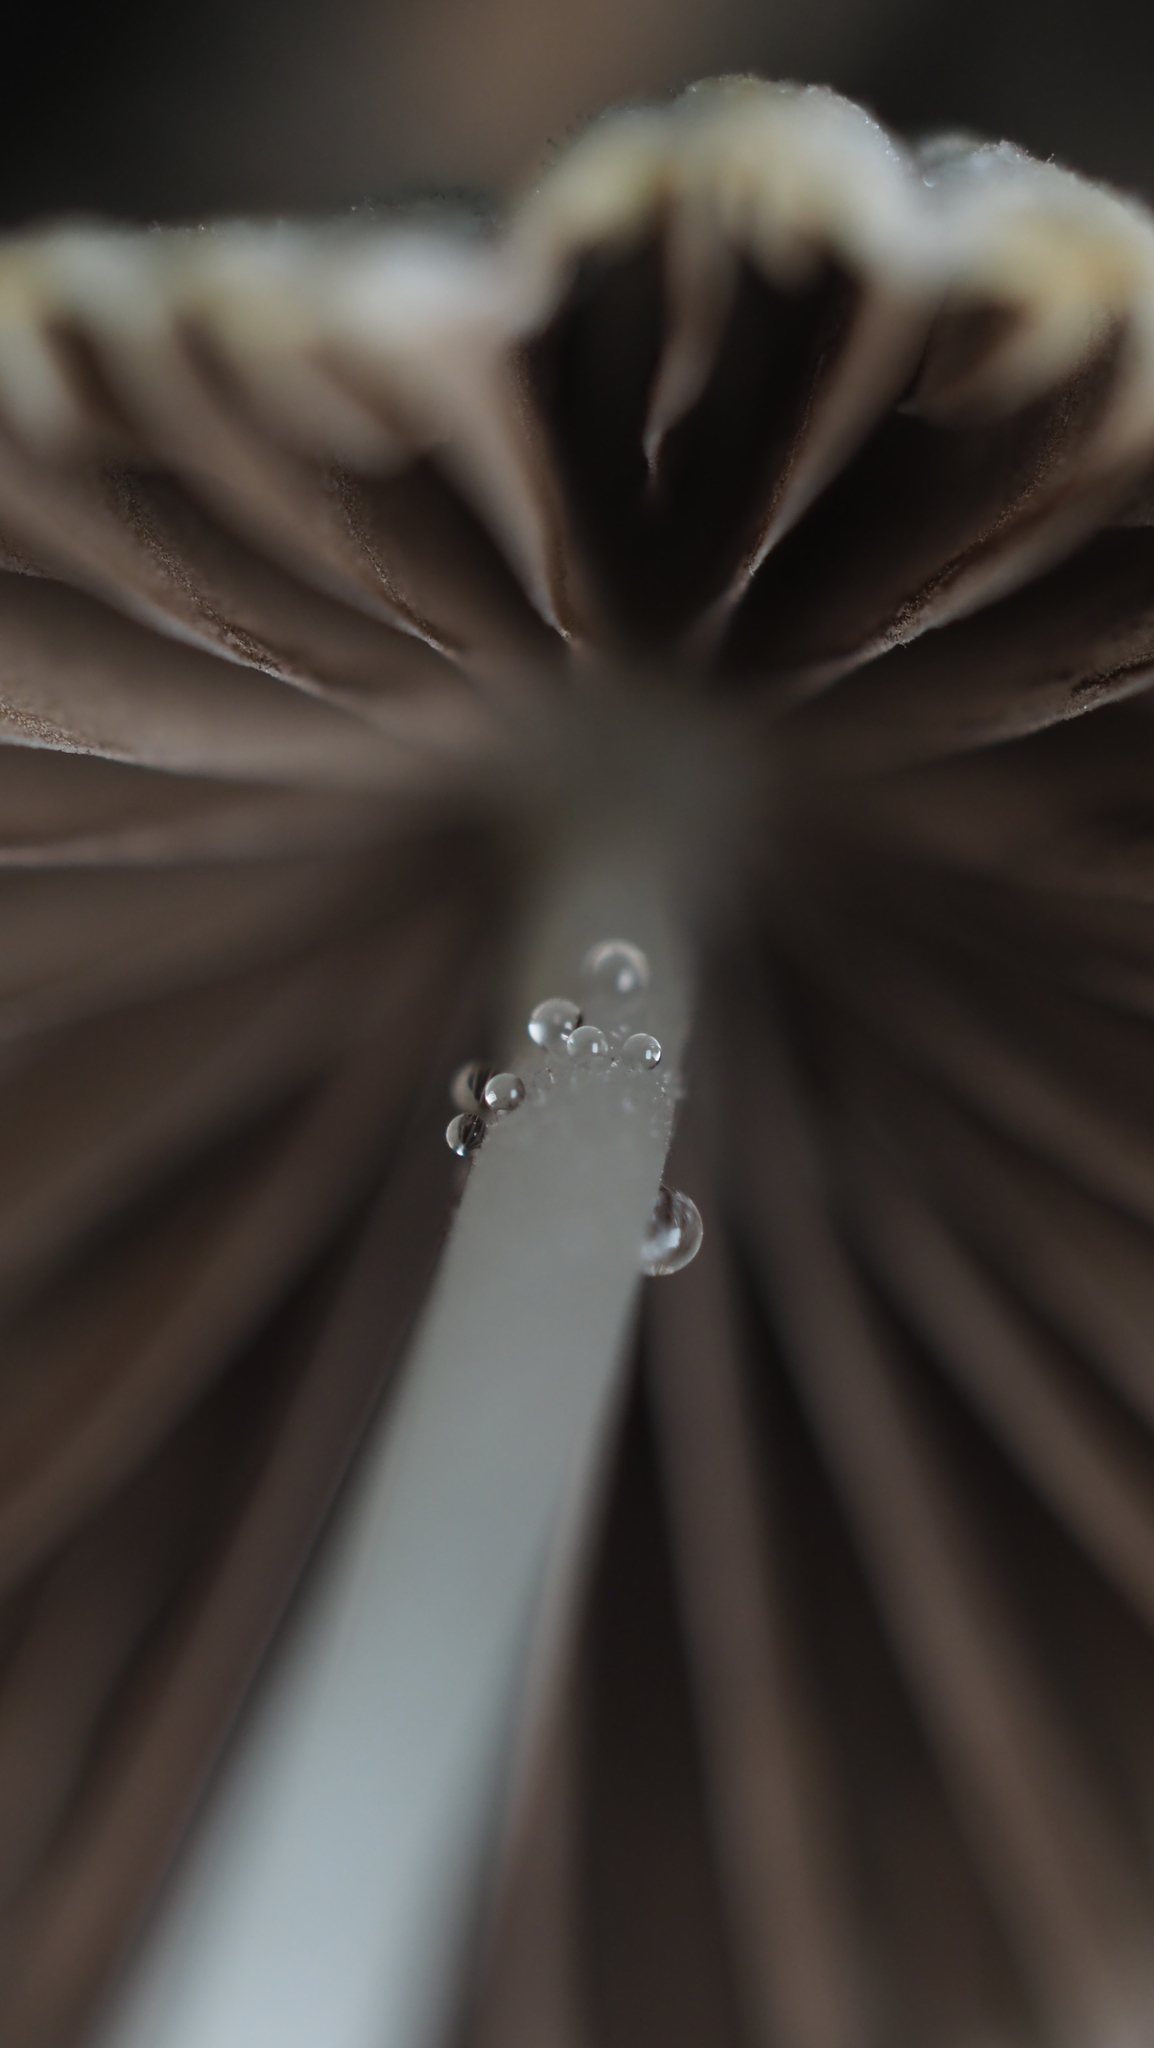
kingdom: Fungi
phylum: Basidiomycota
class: Agaricomycetes
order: Agaricales
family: Psathyrellaceae
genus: Coprinellus
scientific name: Coprinellus disseminatus
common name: Fairies' bonnets
